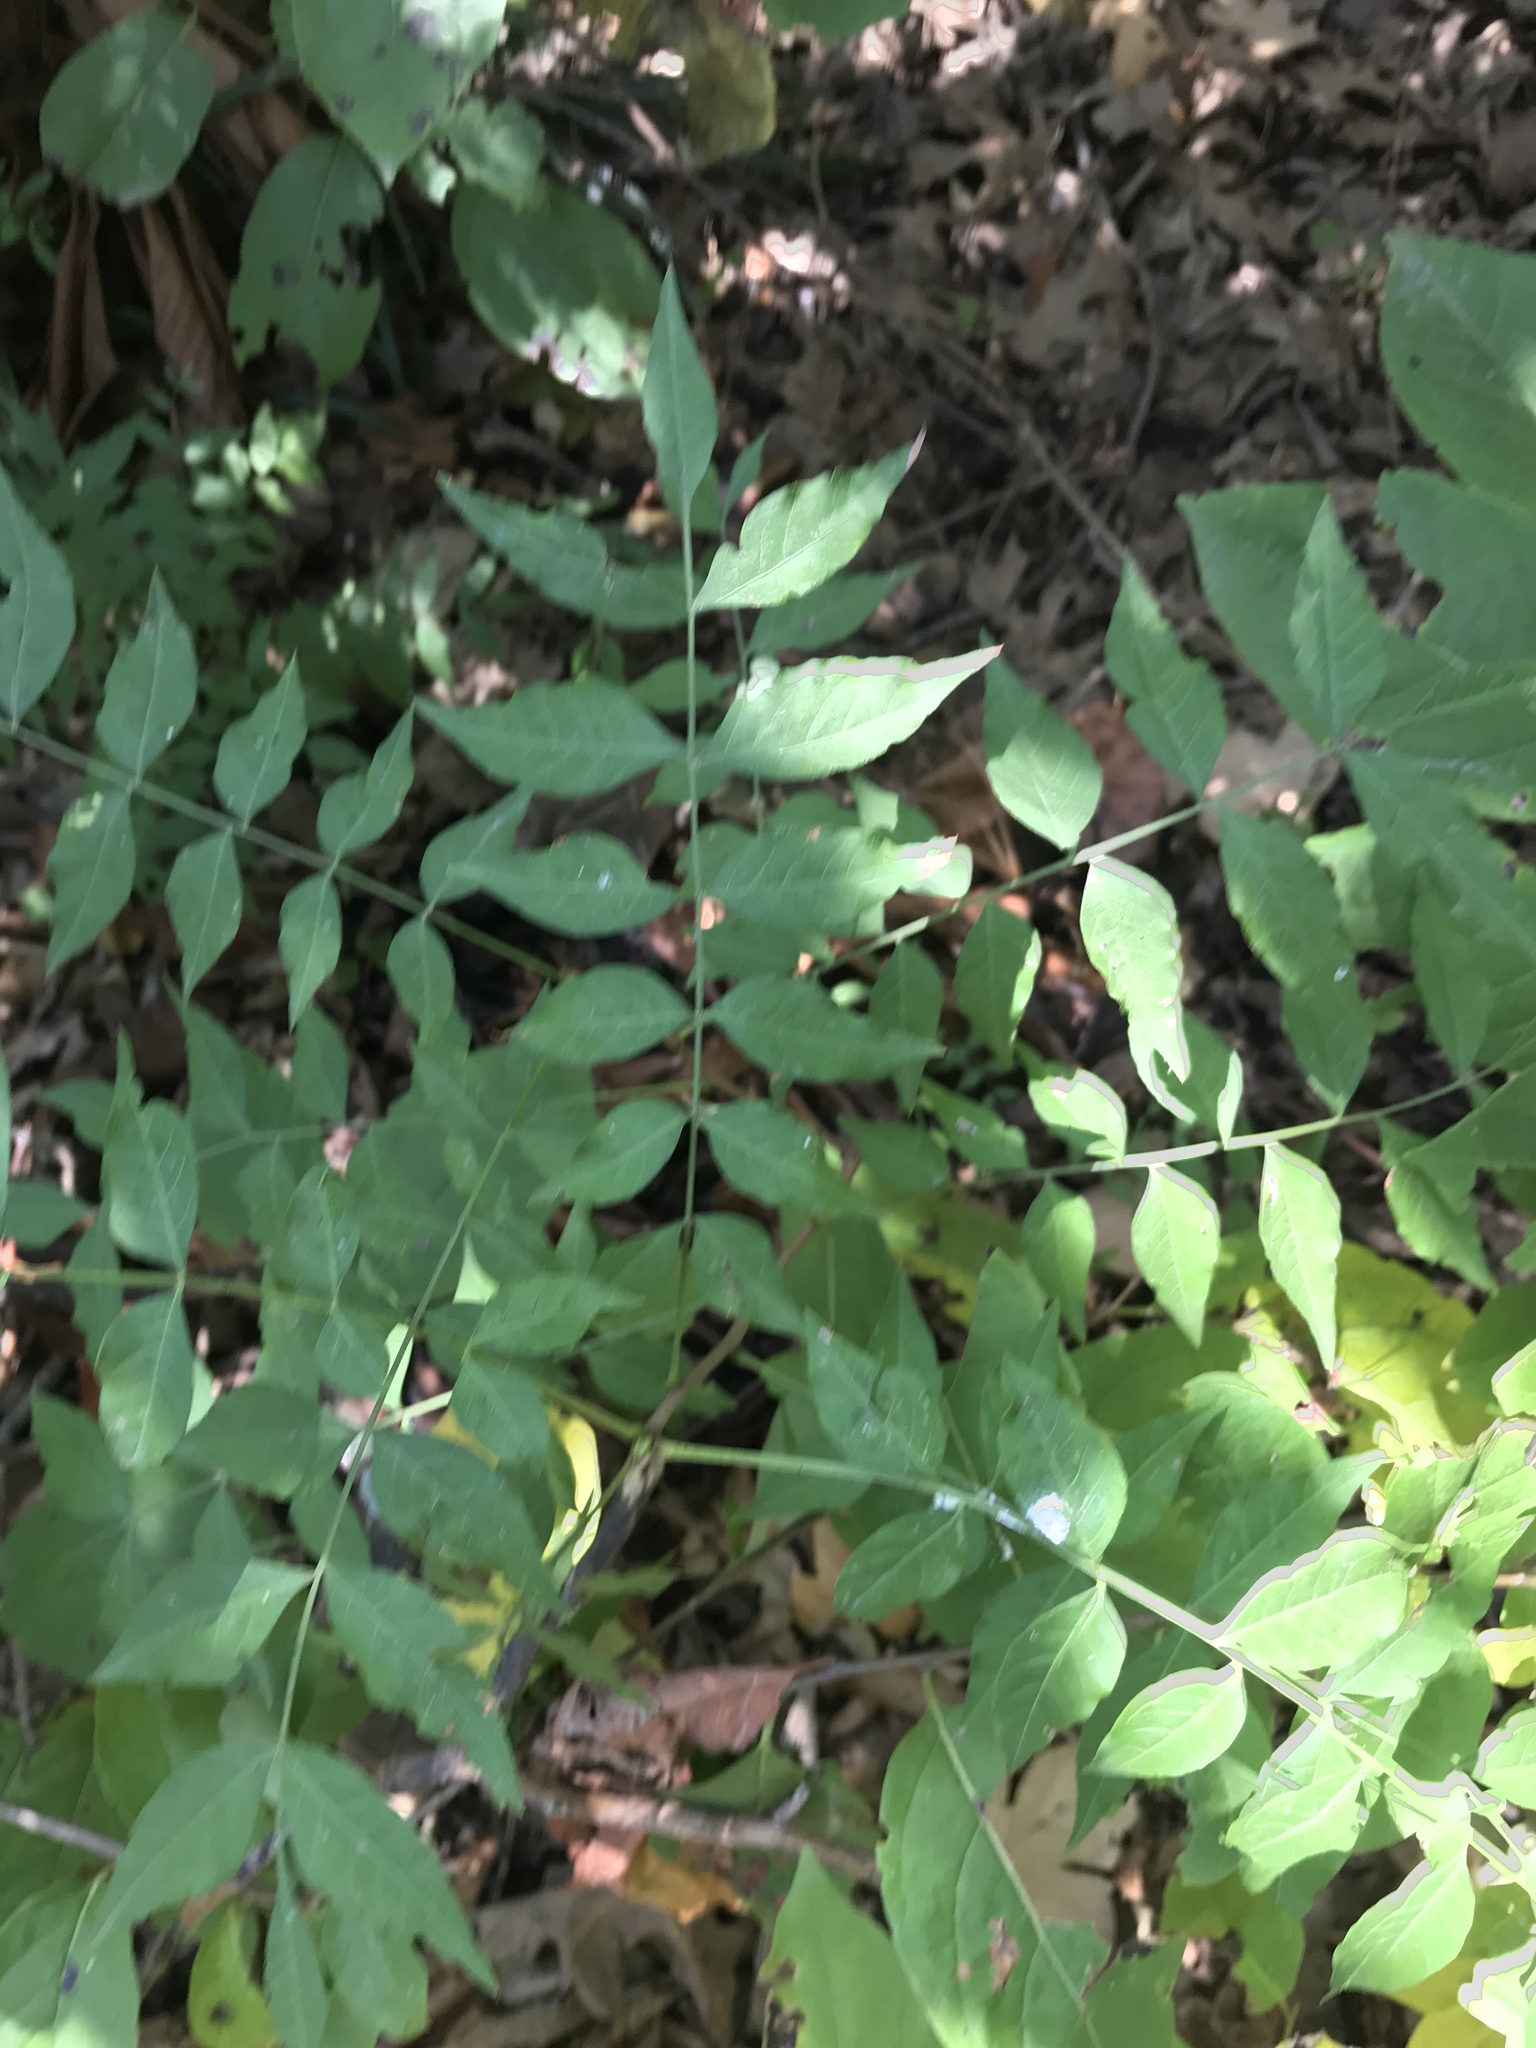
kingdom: Plantae
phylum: Tracheophyta
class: Magnoliopsida
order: Sapindales
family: Anacardiaceae
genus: Pistacia
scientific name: Pistacia chinensis
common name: Chinese pistache
